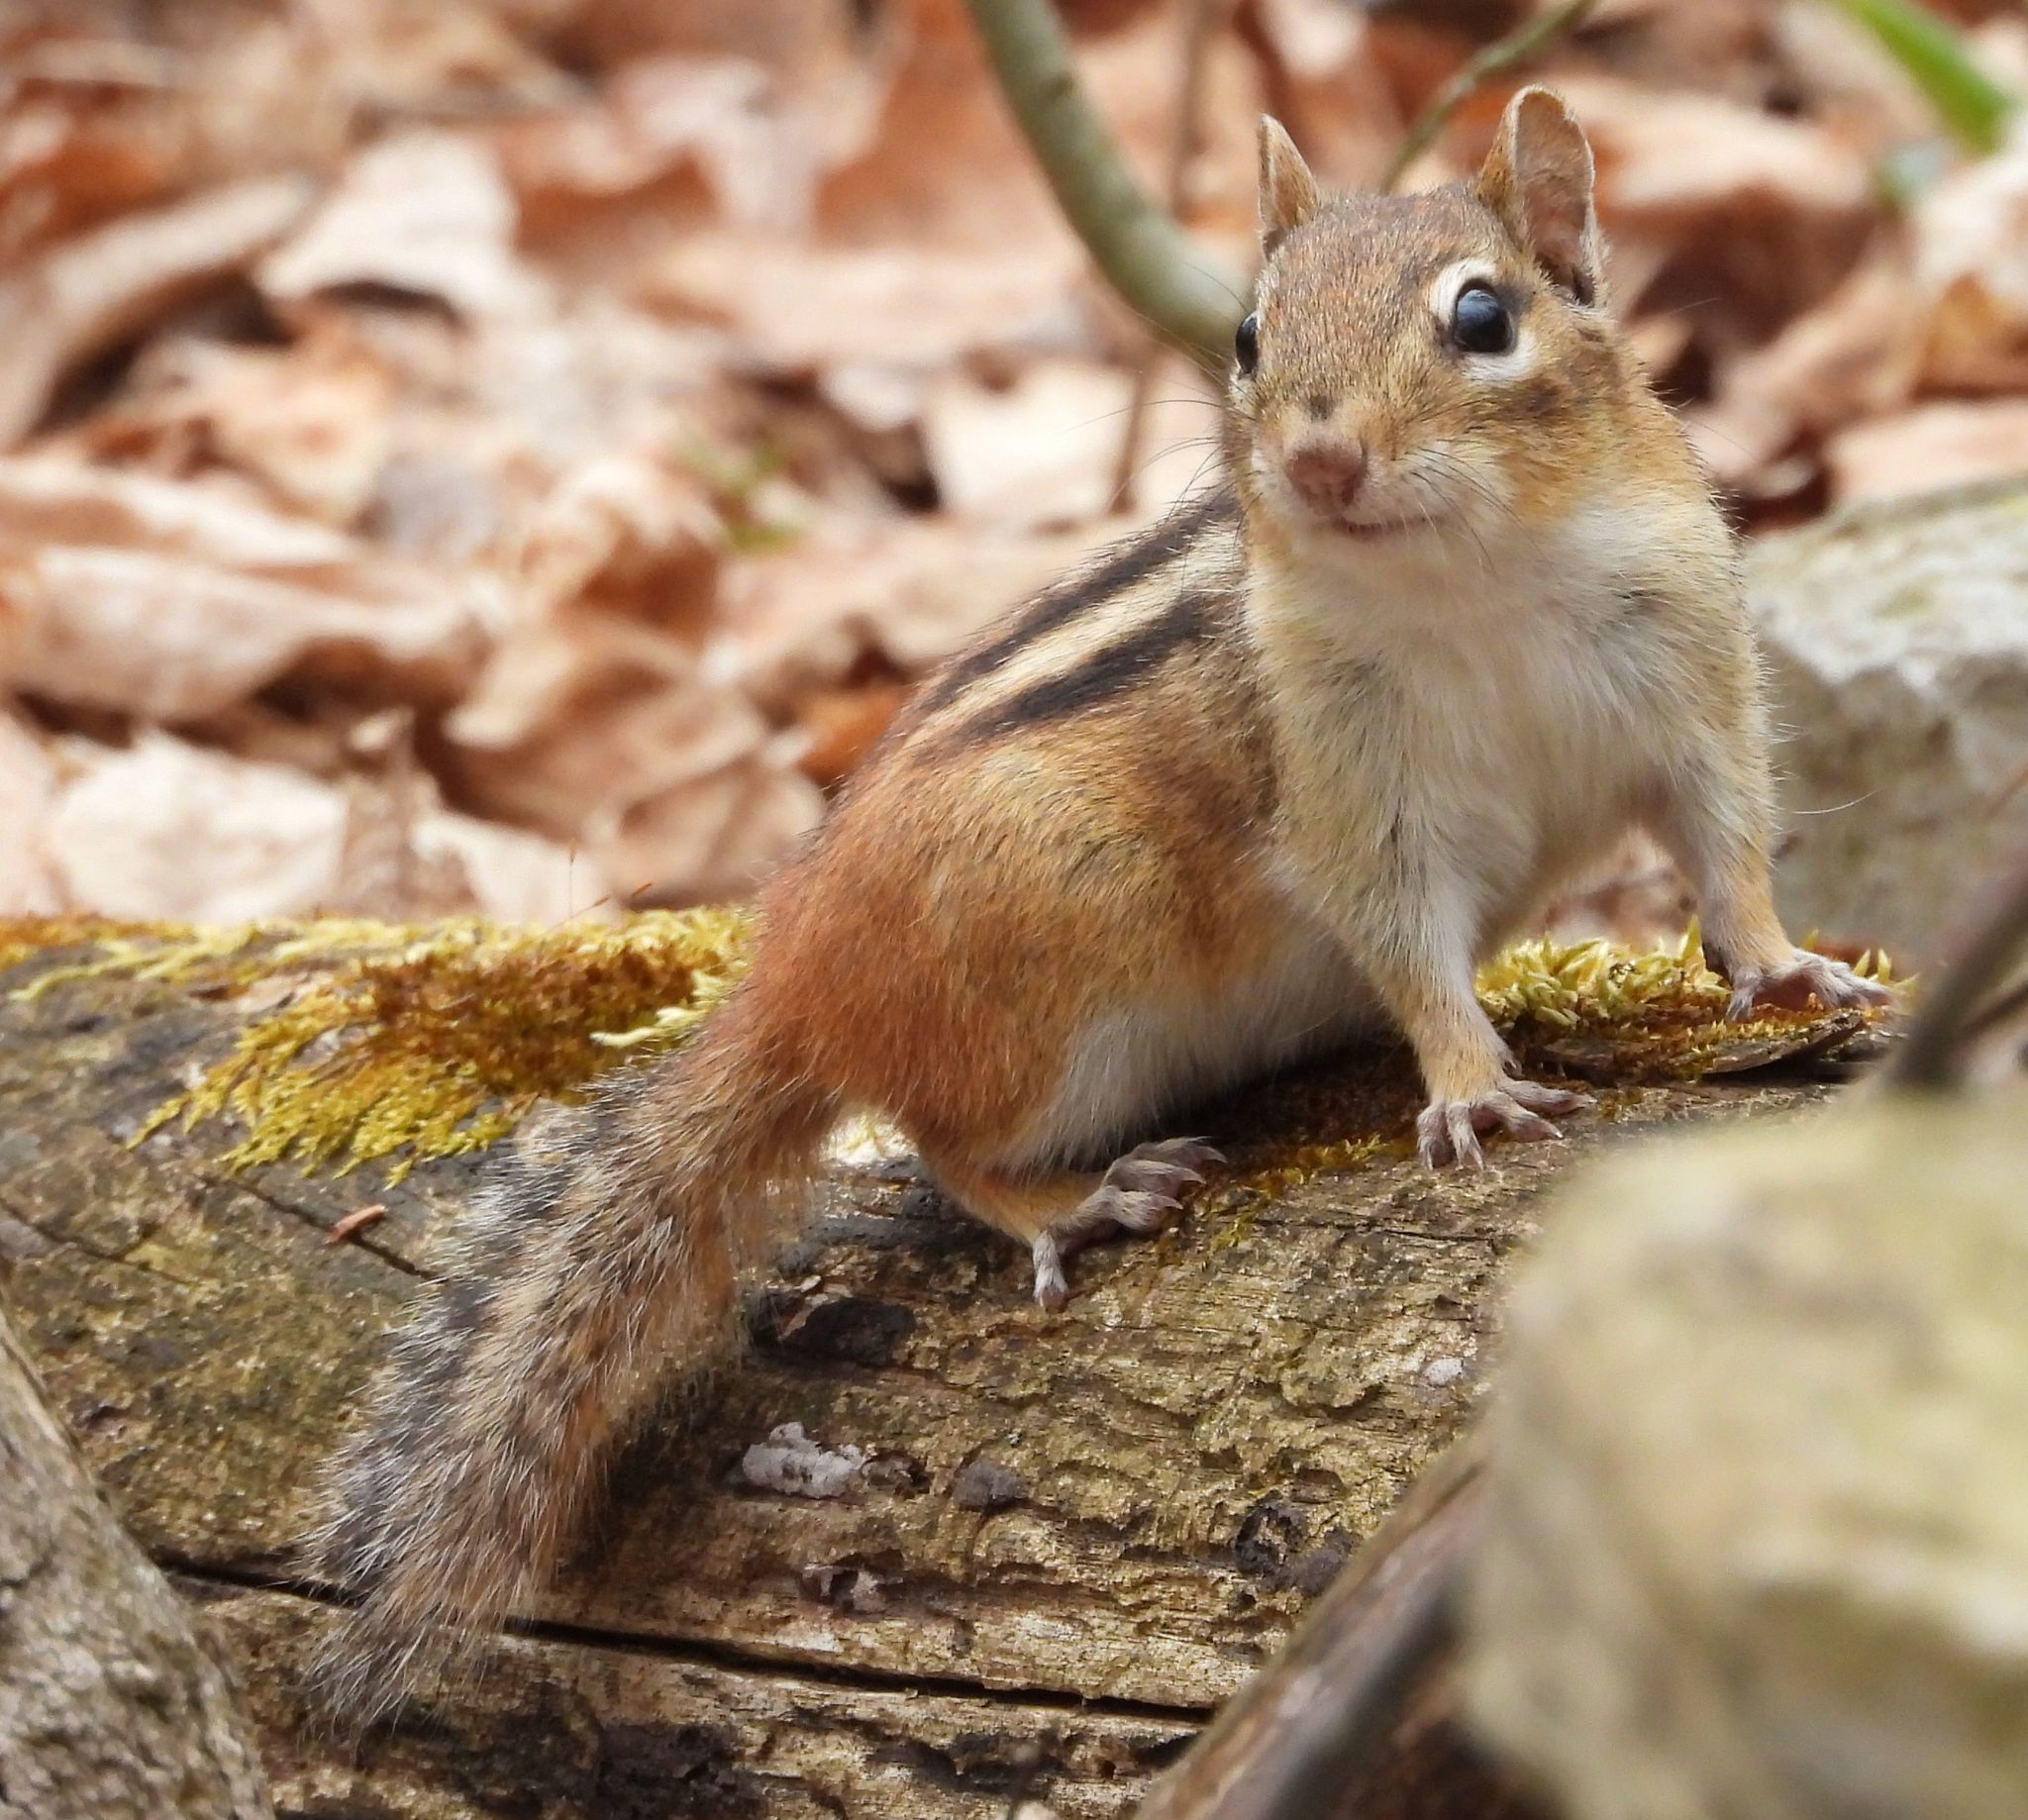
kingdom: Animalia
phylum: Chordata
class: Mammalia
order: Rodentia
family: Sciuridae
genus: Tamias
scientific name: Tamias striatus
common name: Eastern chipmunk
